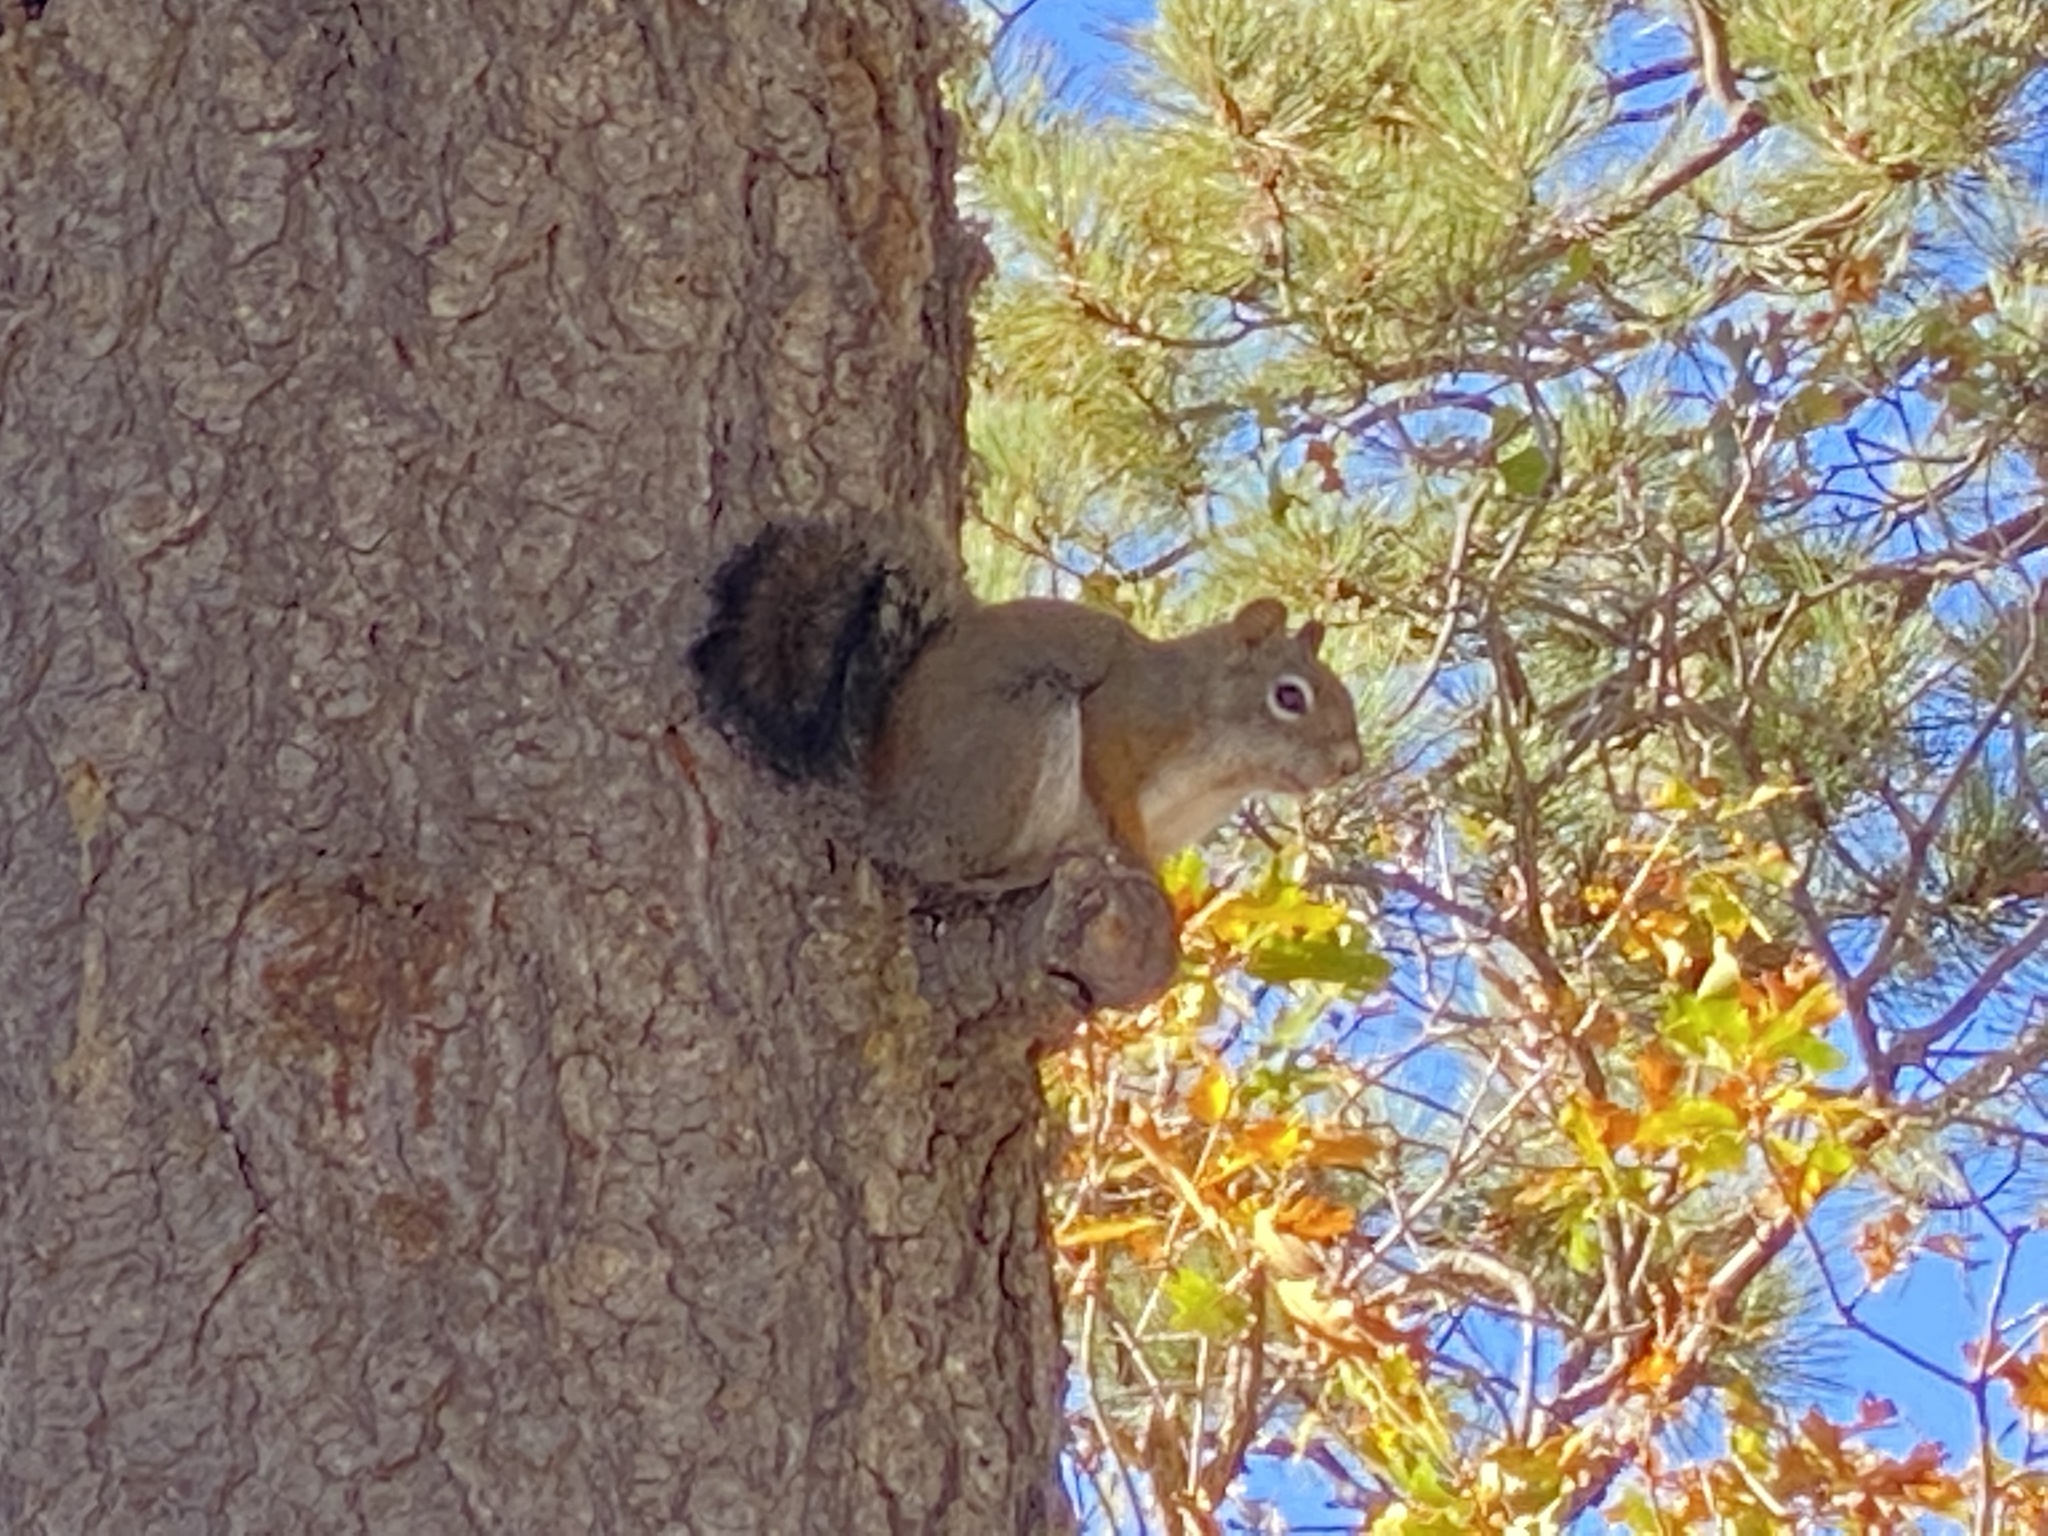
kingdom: Animalia
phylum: Chordata
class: Mammalia
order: Rodentia
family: Sciuridae
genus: Tamiasciurus
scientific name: Tamiasciurus hudsonicus
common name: Red squirrel
